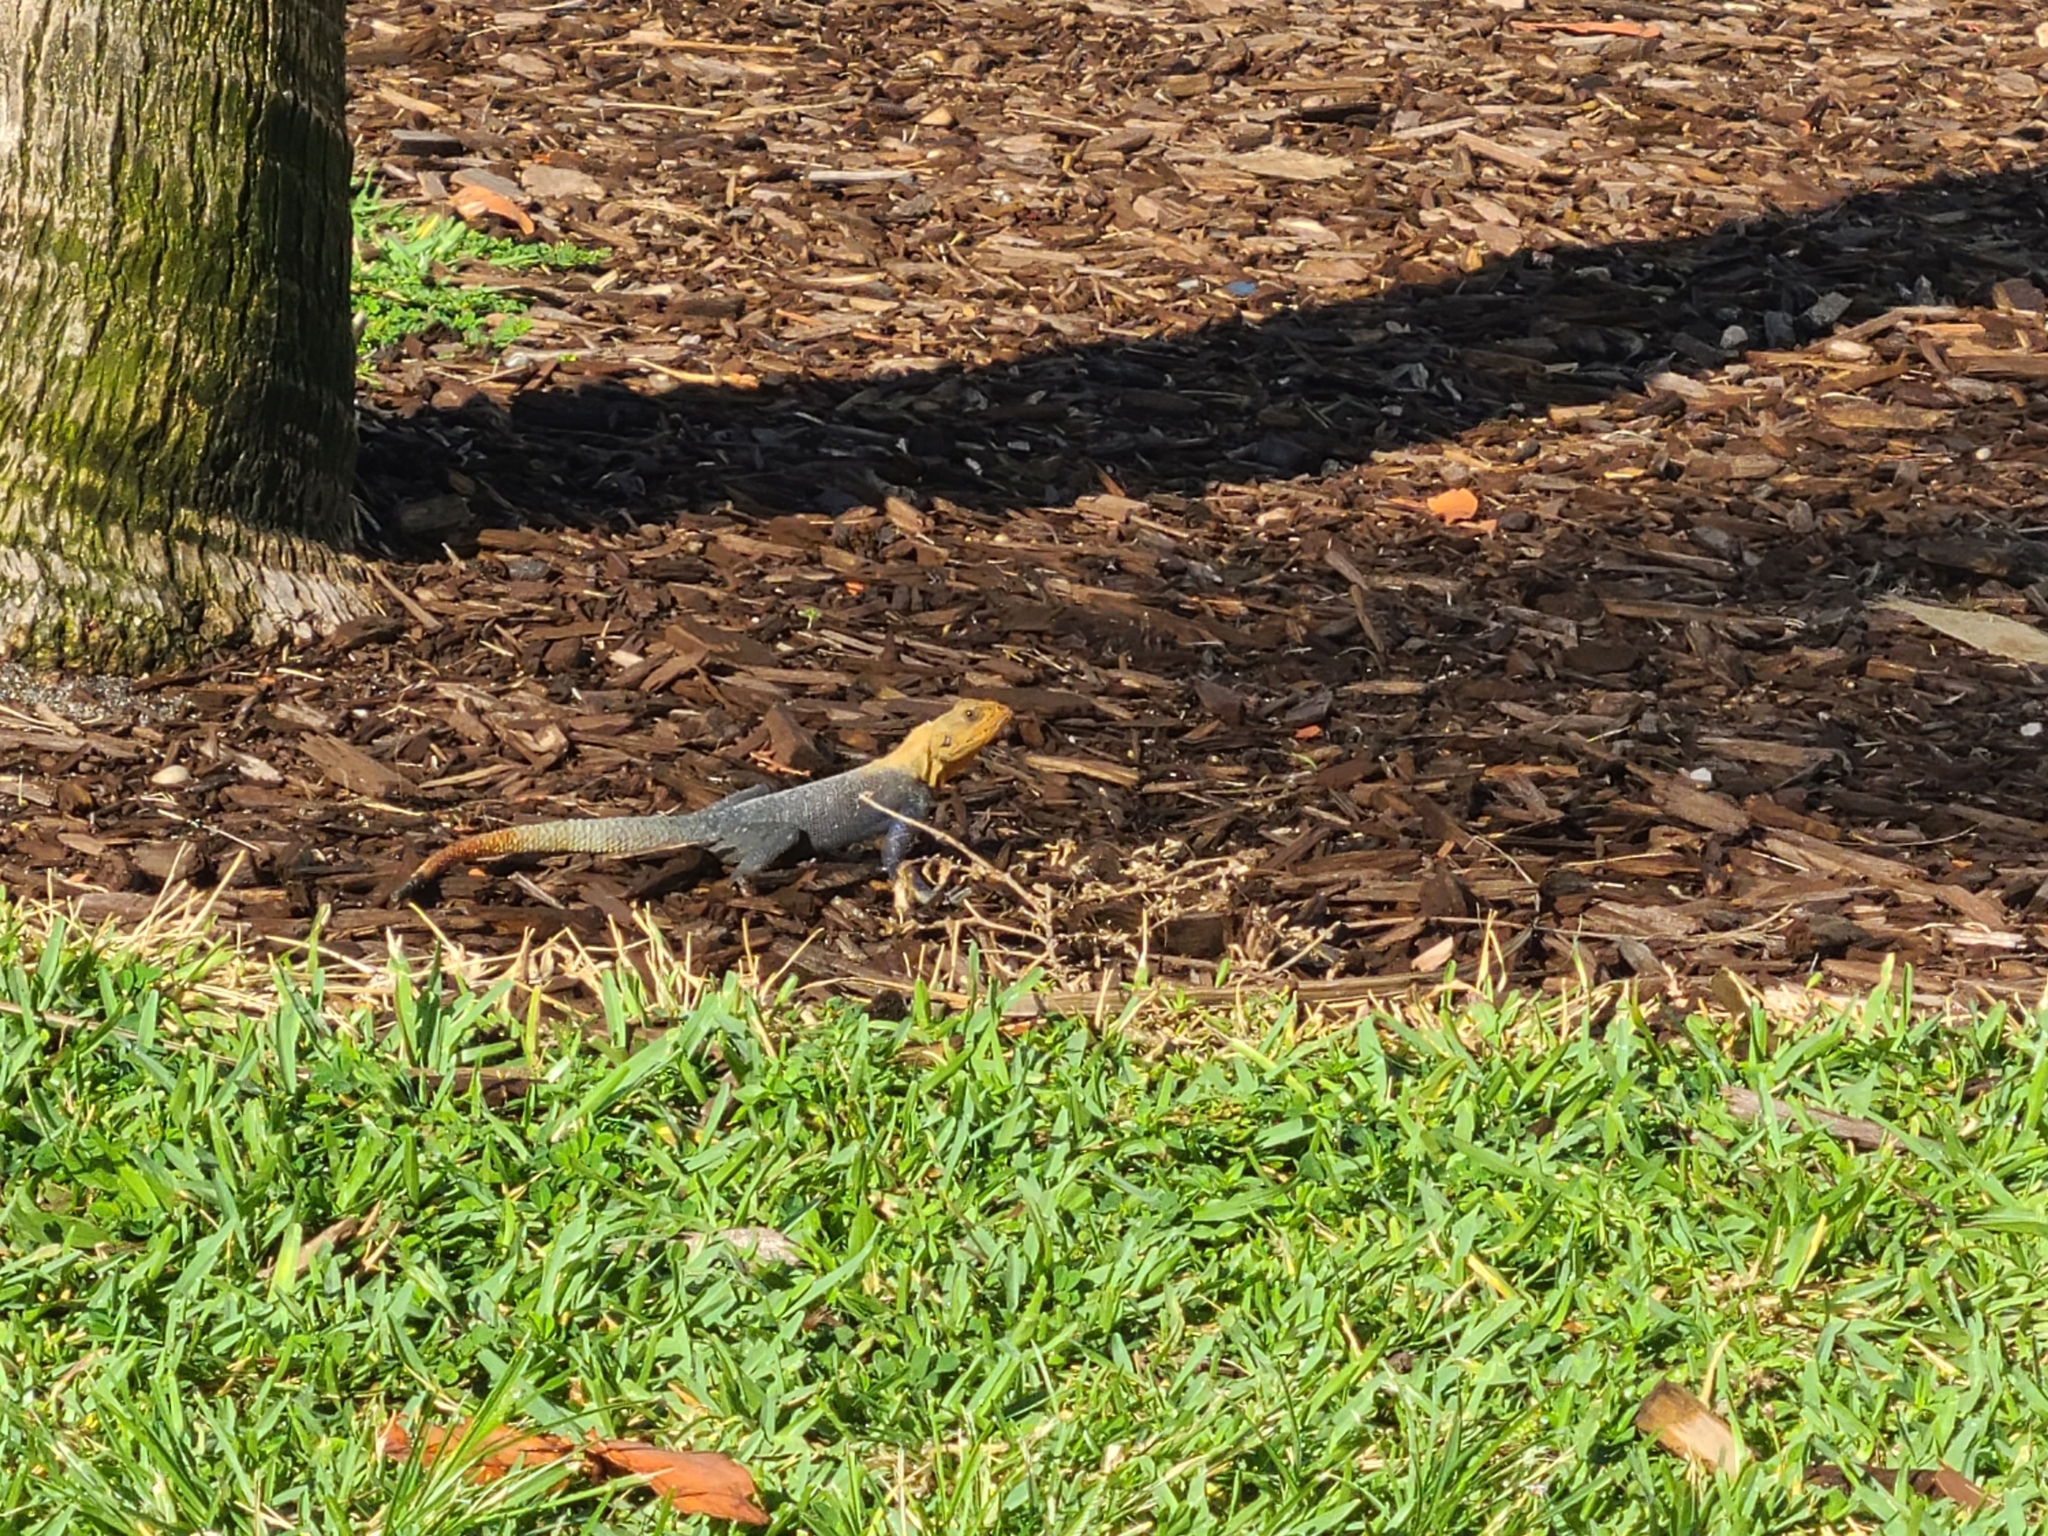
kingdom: Animalia
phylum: Chordata
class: Squamata
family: Agamidae
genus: Agama
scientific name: Agama picticauda
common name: Red-headed agama
